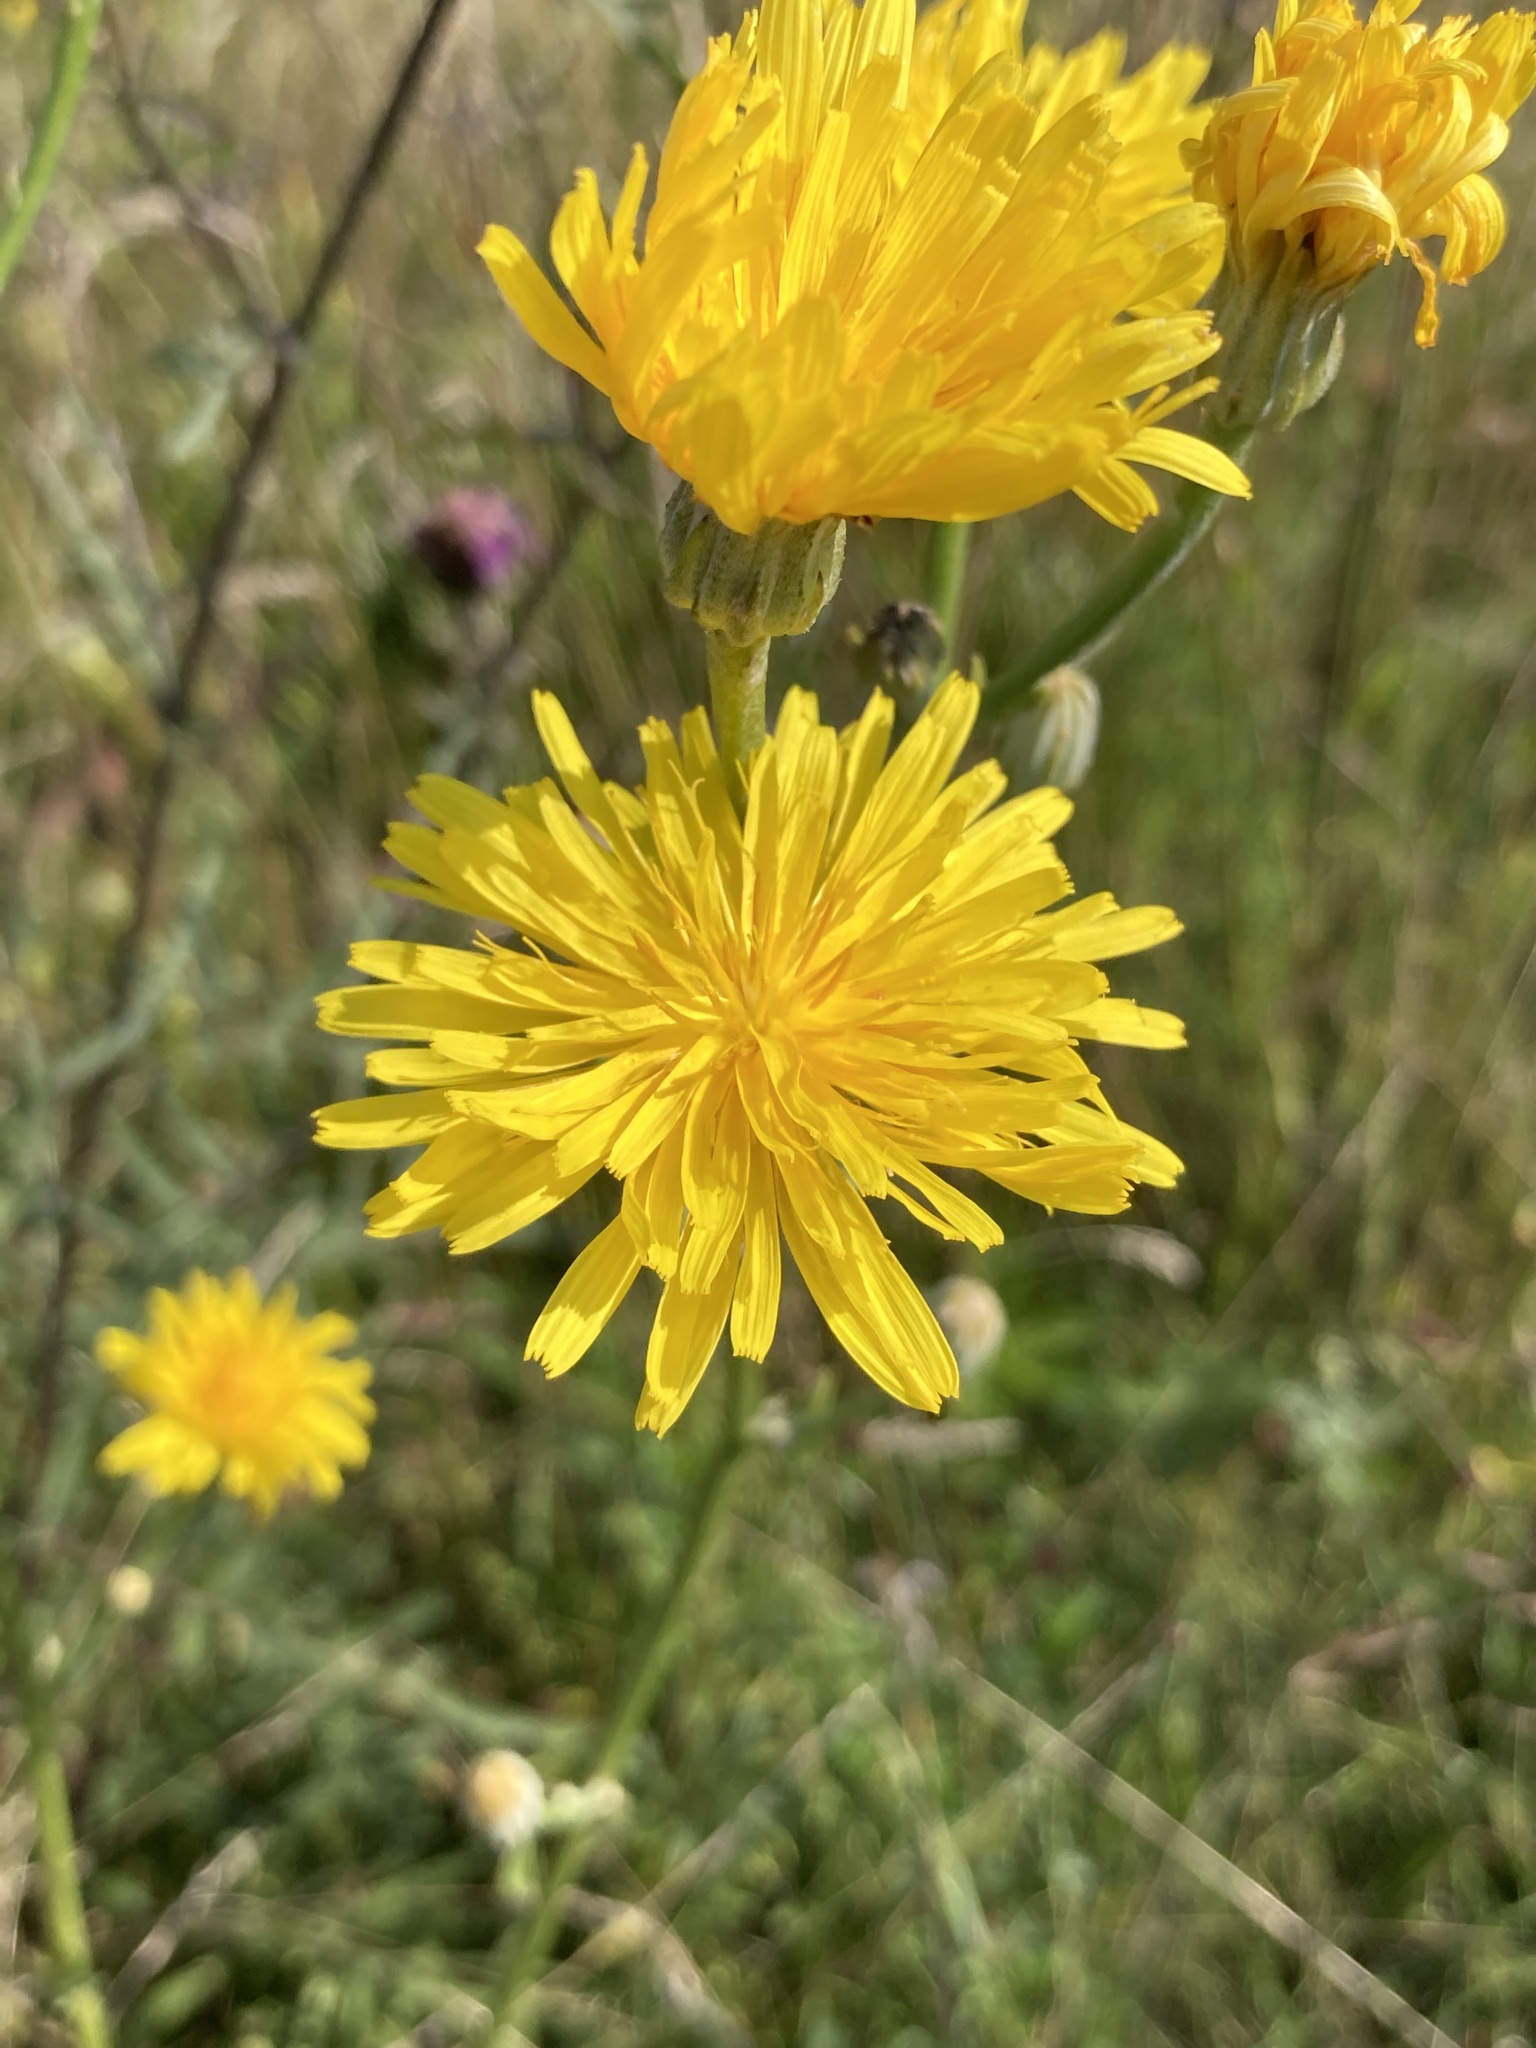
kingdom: Plantae
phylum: Tracheophyta
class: Magnoliopsida
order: Asterales
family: Asteraceae
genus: Crepis
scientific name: Crepis pannonica
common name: Pasture hawksbeard
